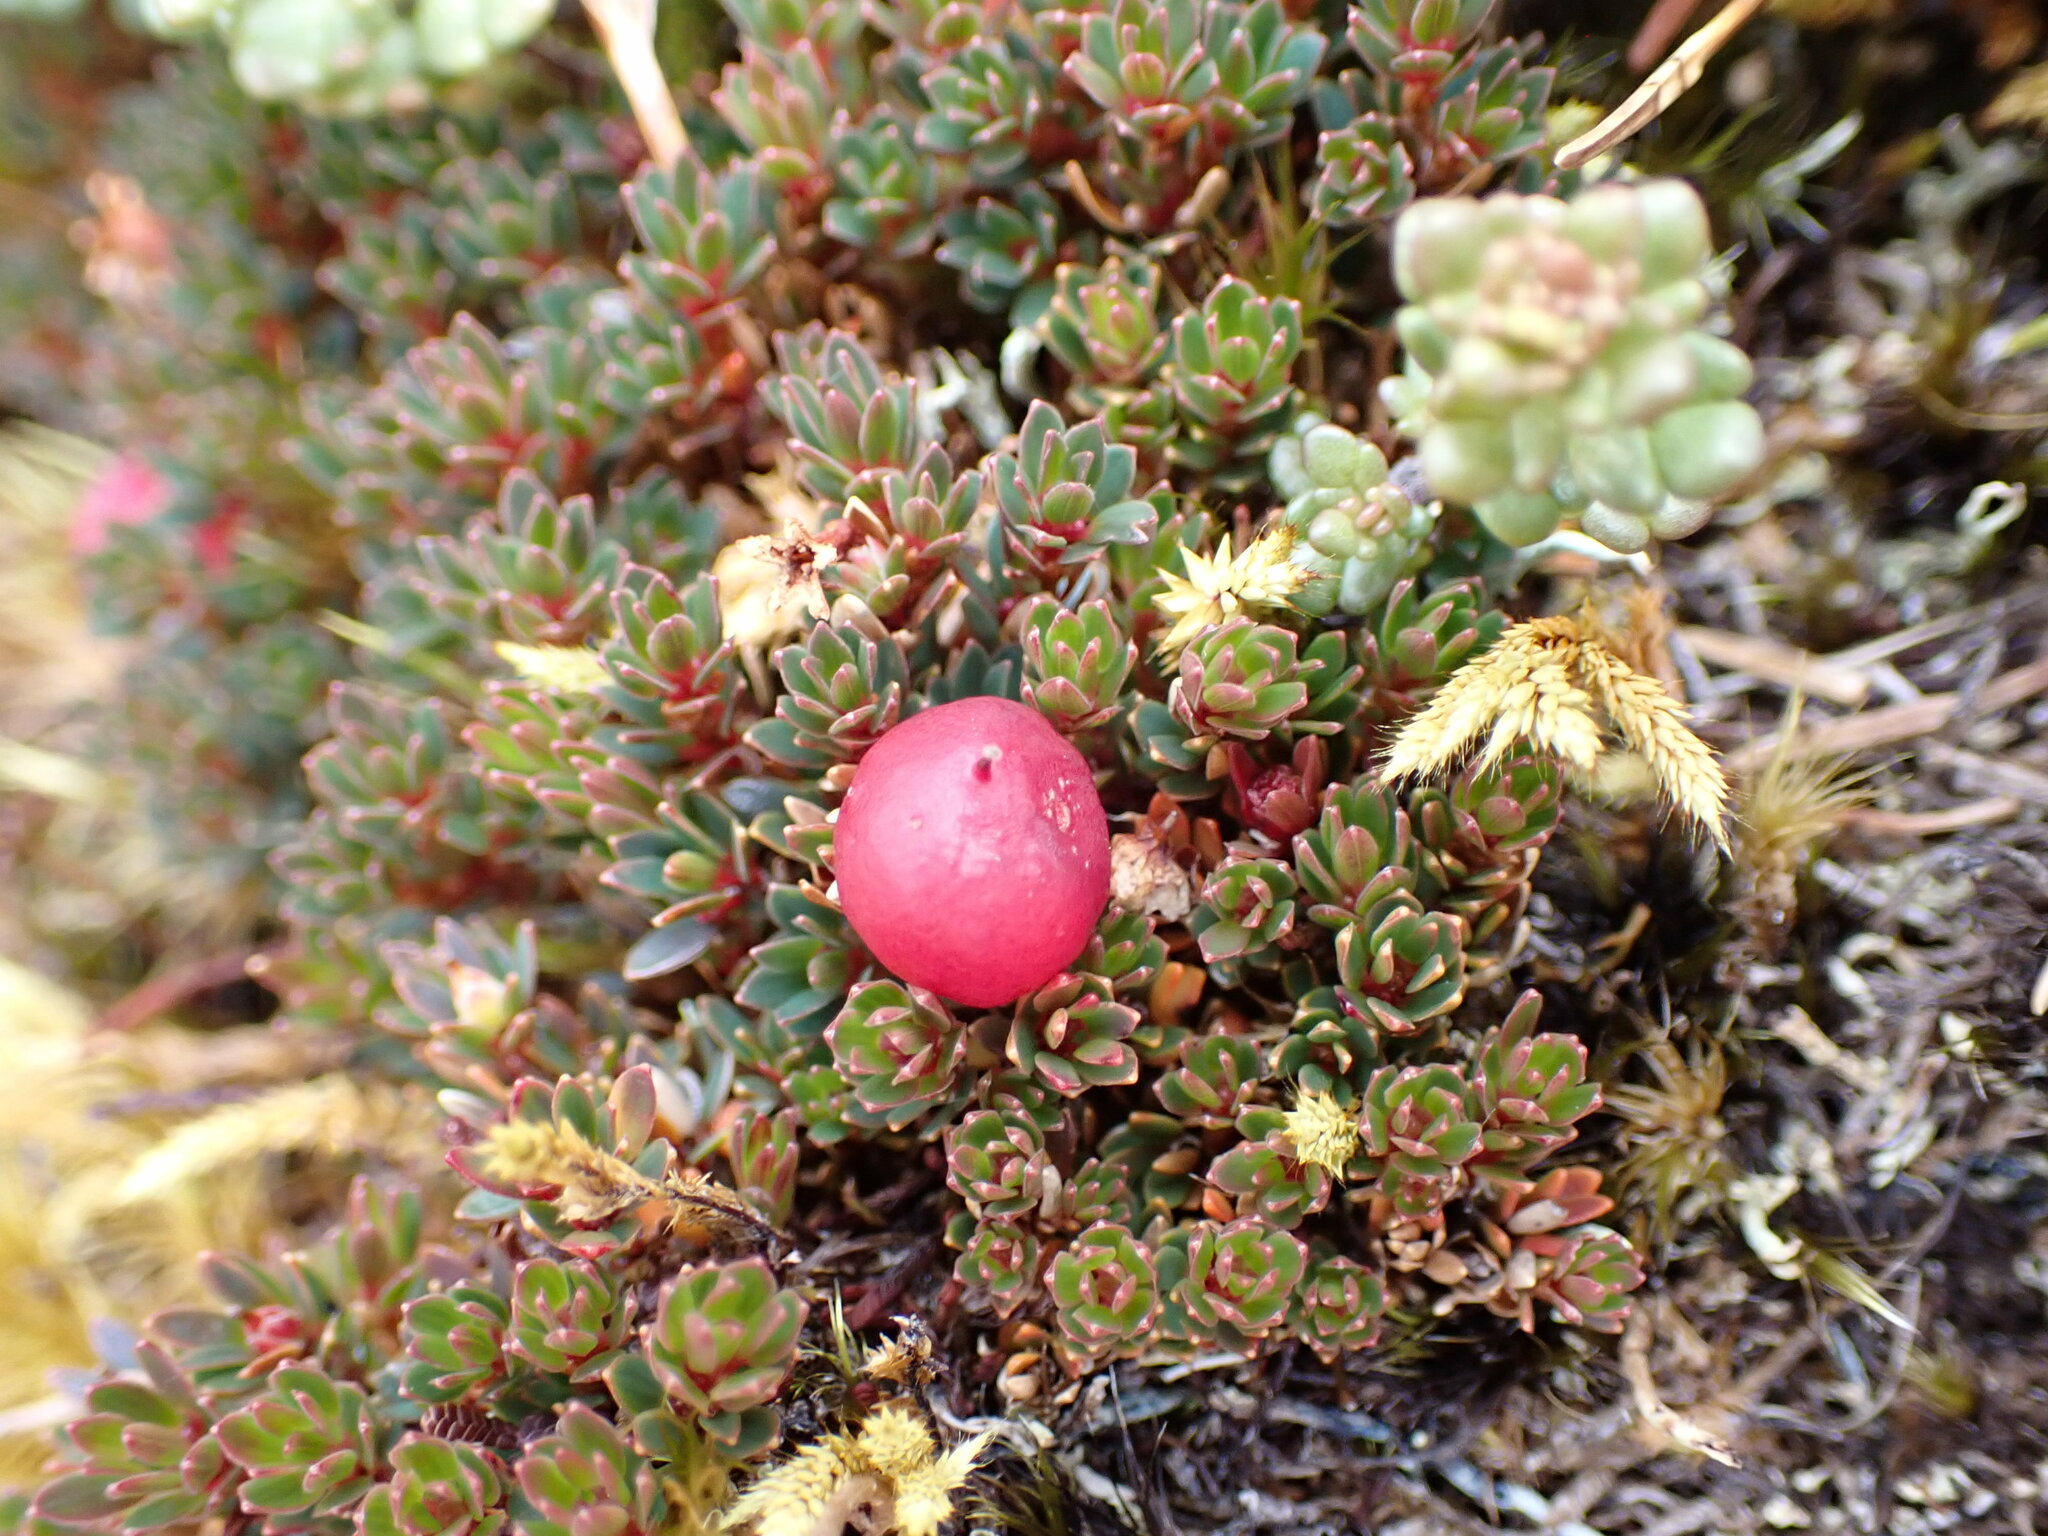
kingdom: Plantae
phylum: Tracheophyta
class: Magnoliopsida
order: Ericales
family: Ericaceae
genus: Pentachondra
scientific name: Pentachondra pumila
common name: Carpet-heath
